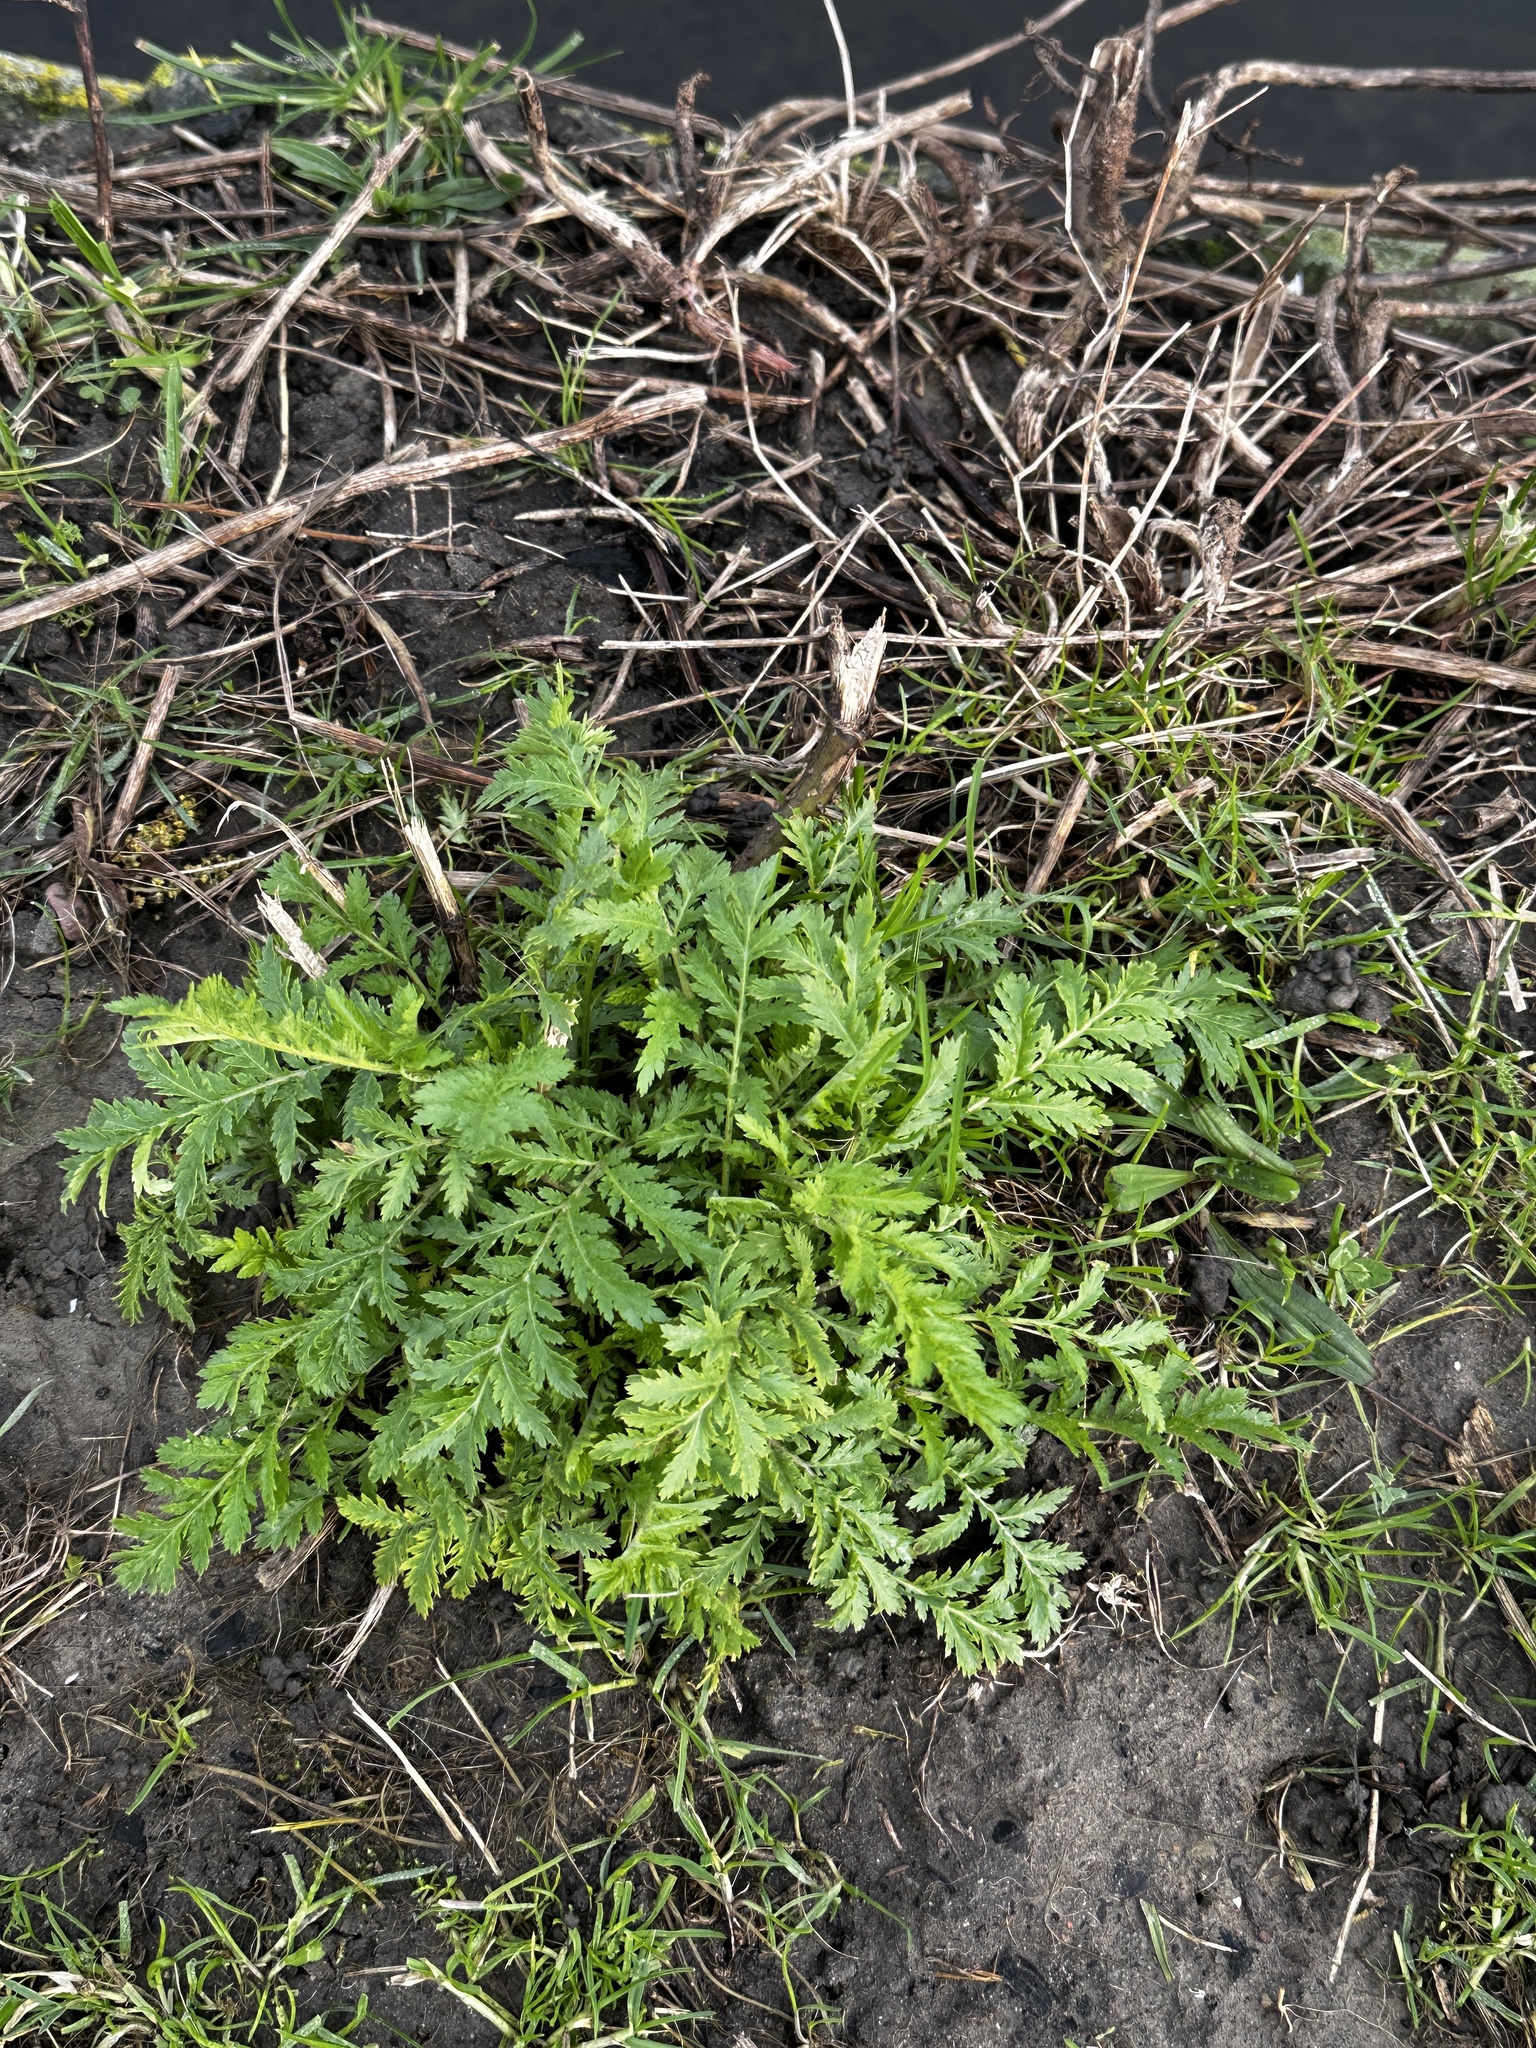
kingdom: Plantae
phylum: Tracheophyta
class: Magnoliopsida
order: Asterales
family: Asteraceae
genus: Tanacetum
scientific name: Tanacetum vulgare
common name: Common tansy
